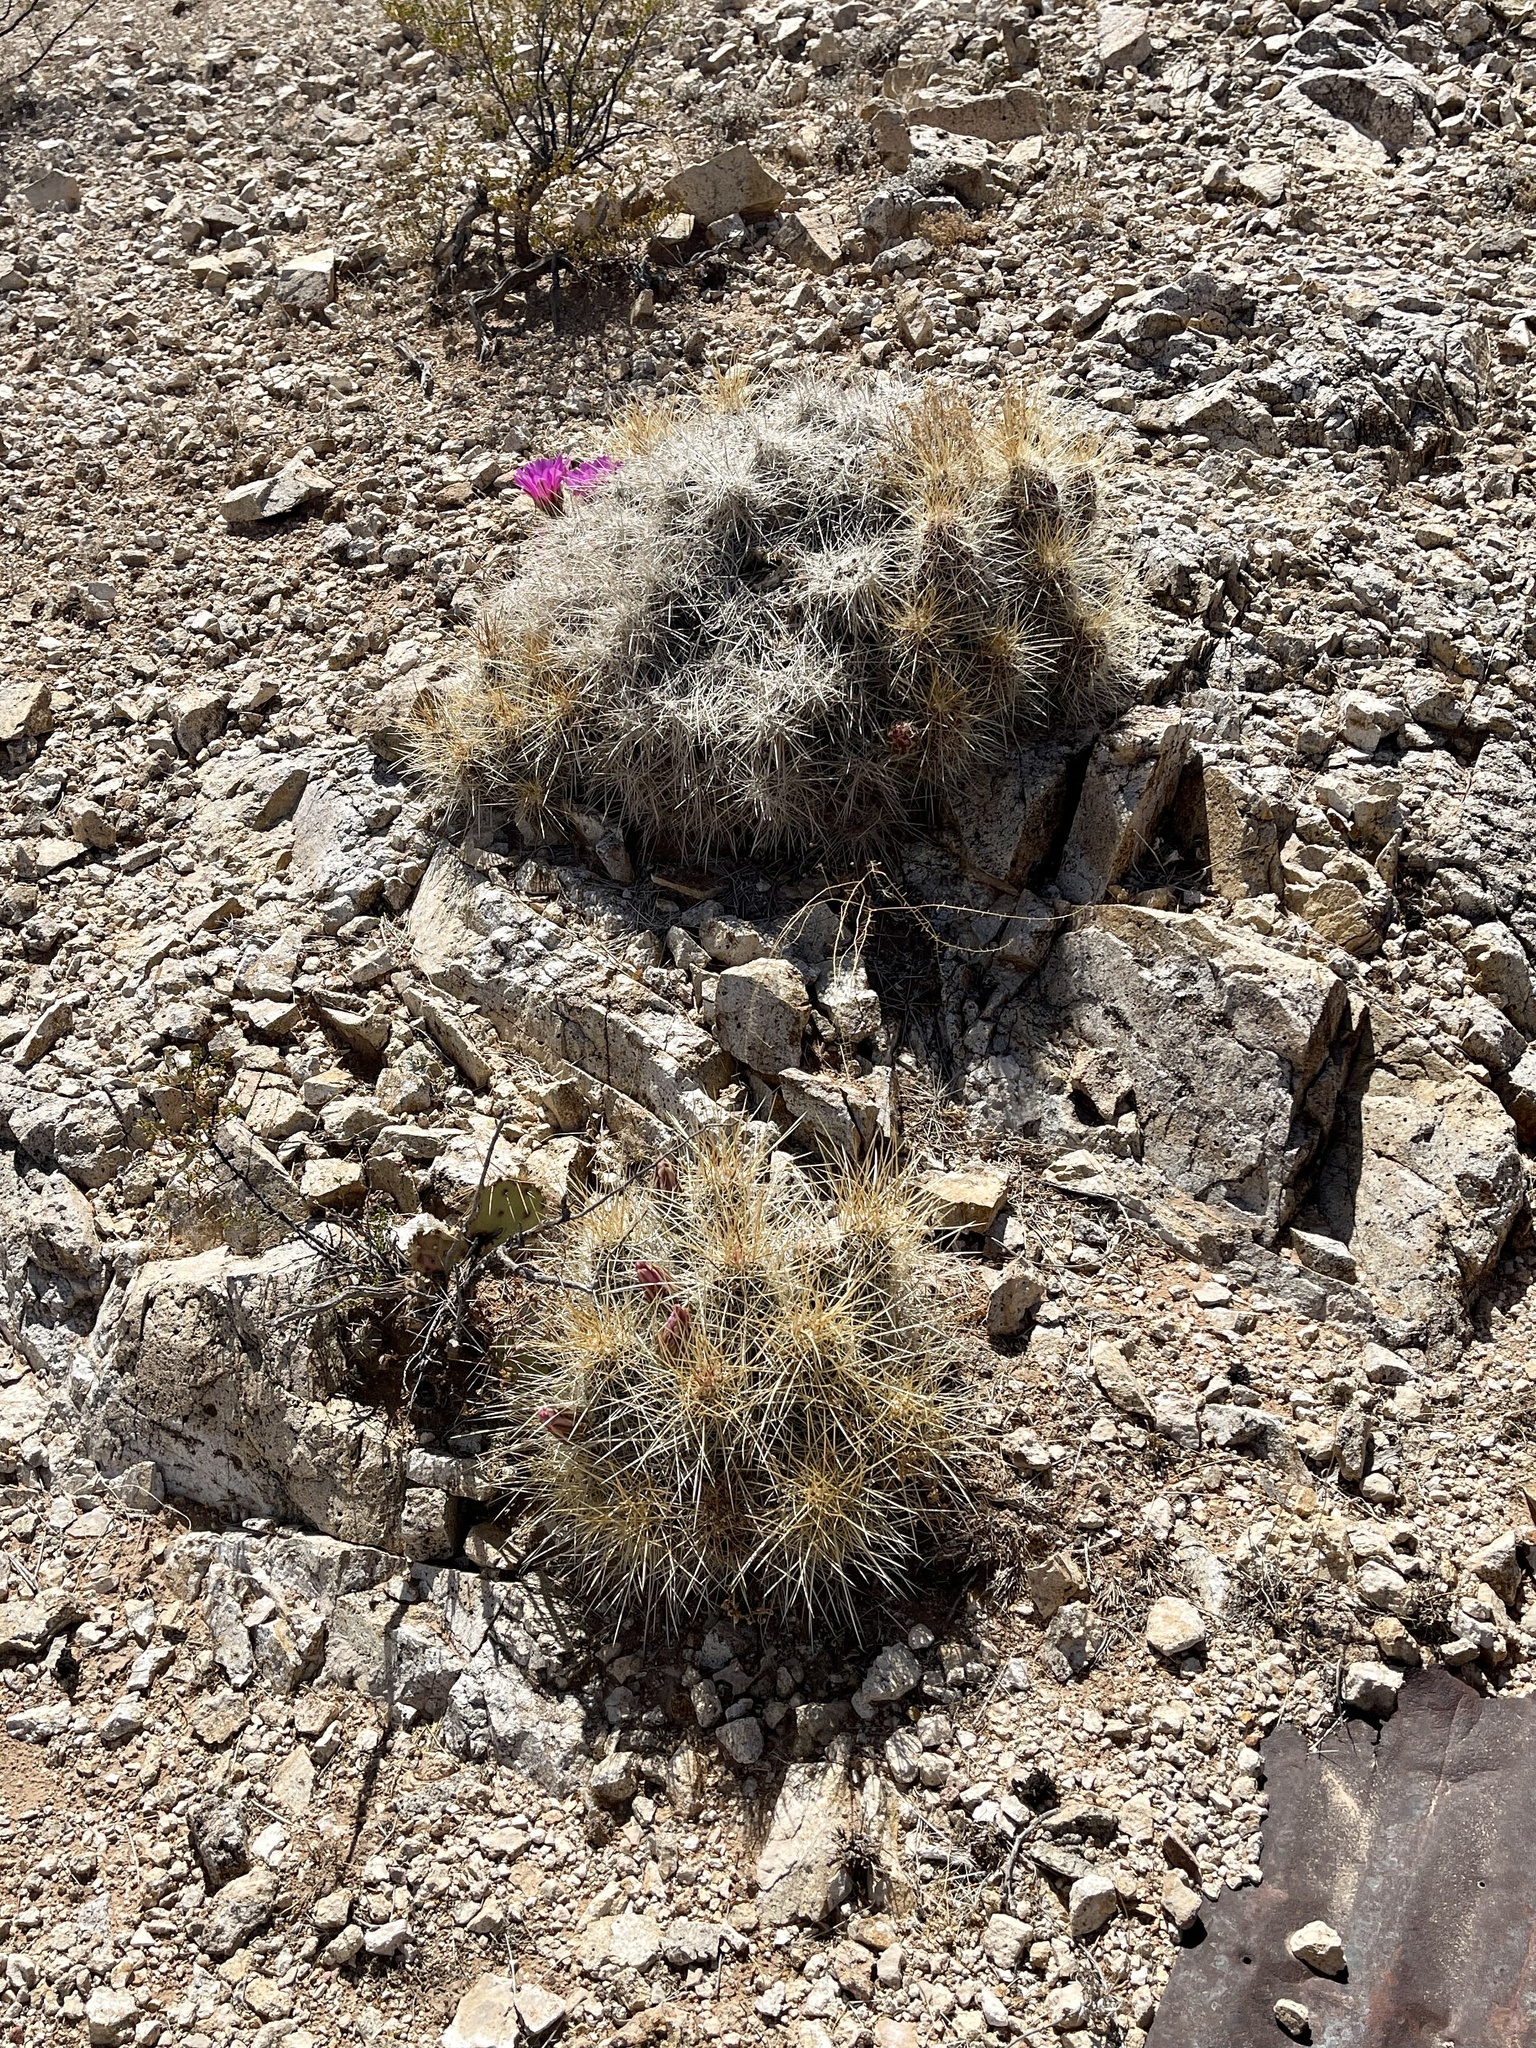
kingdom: Plantae
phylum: Tracheophyta
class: Magnoliopsida
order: Caryophyllales
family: Cactaceae
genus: Echinocereus
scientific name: Echinocereus stramineus
